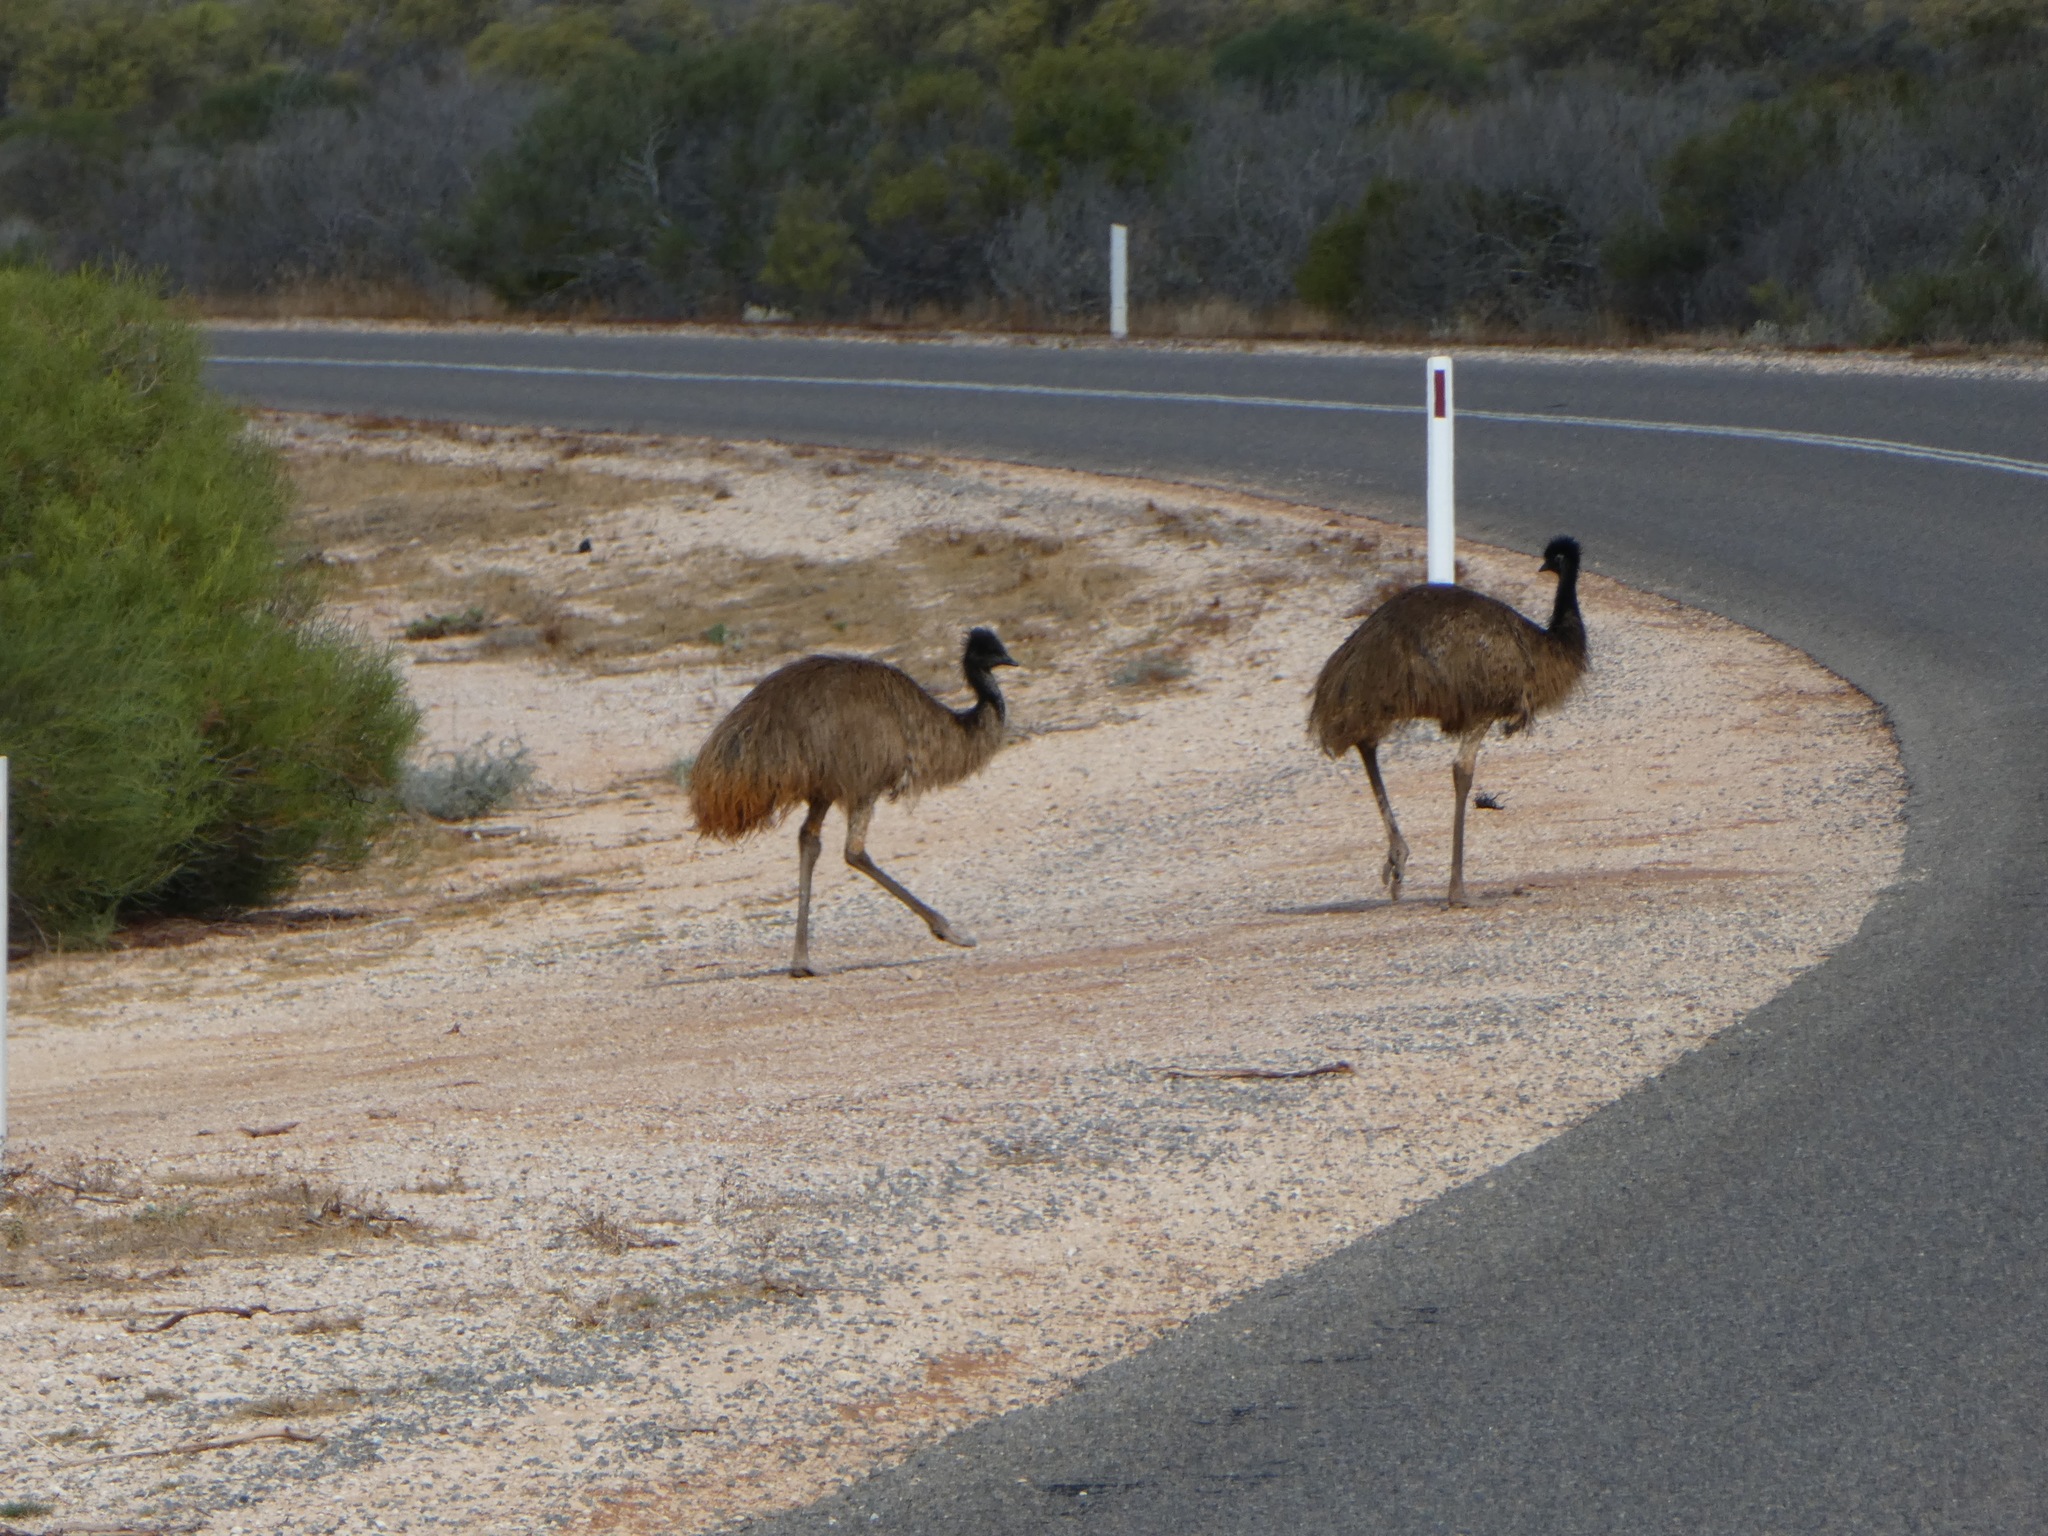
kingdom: Animalia
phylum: Chordata
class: Aves
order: Casuariiformes
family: Dromaiidae
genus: Dromaius
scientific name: Dromaius novaehollandiae
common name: Emu
